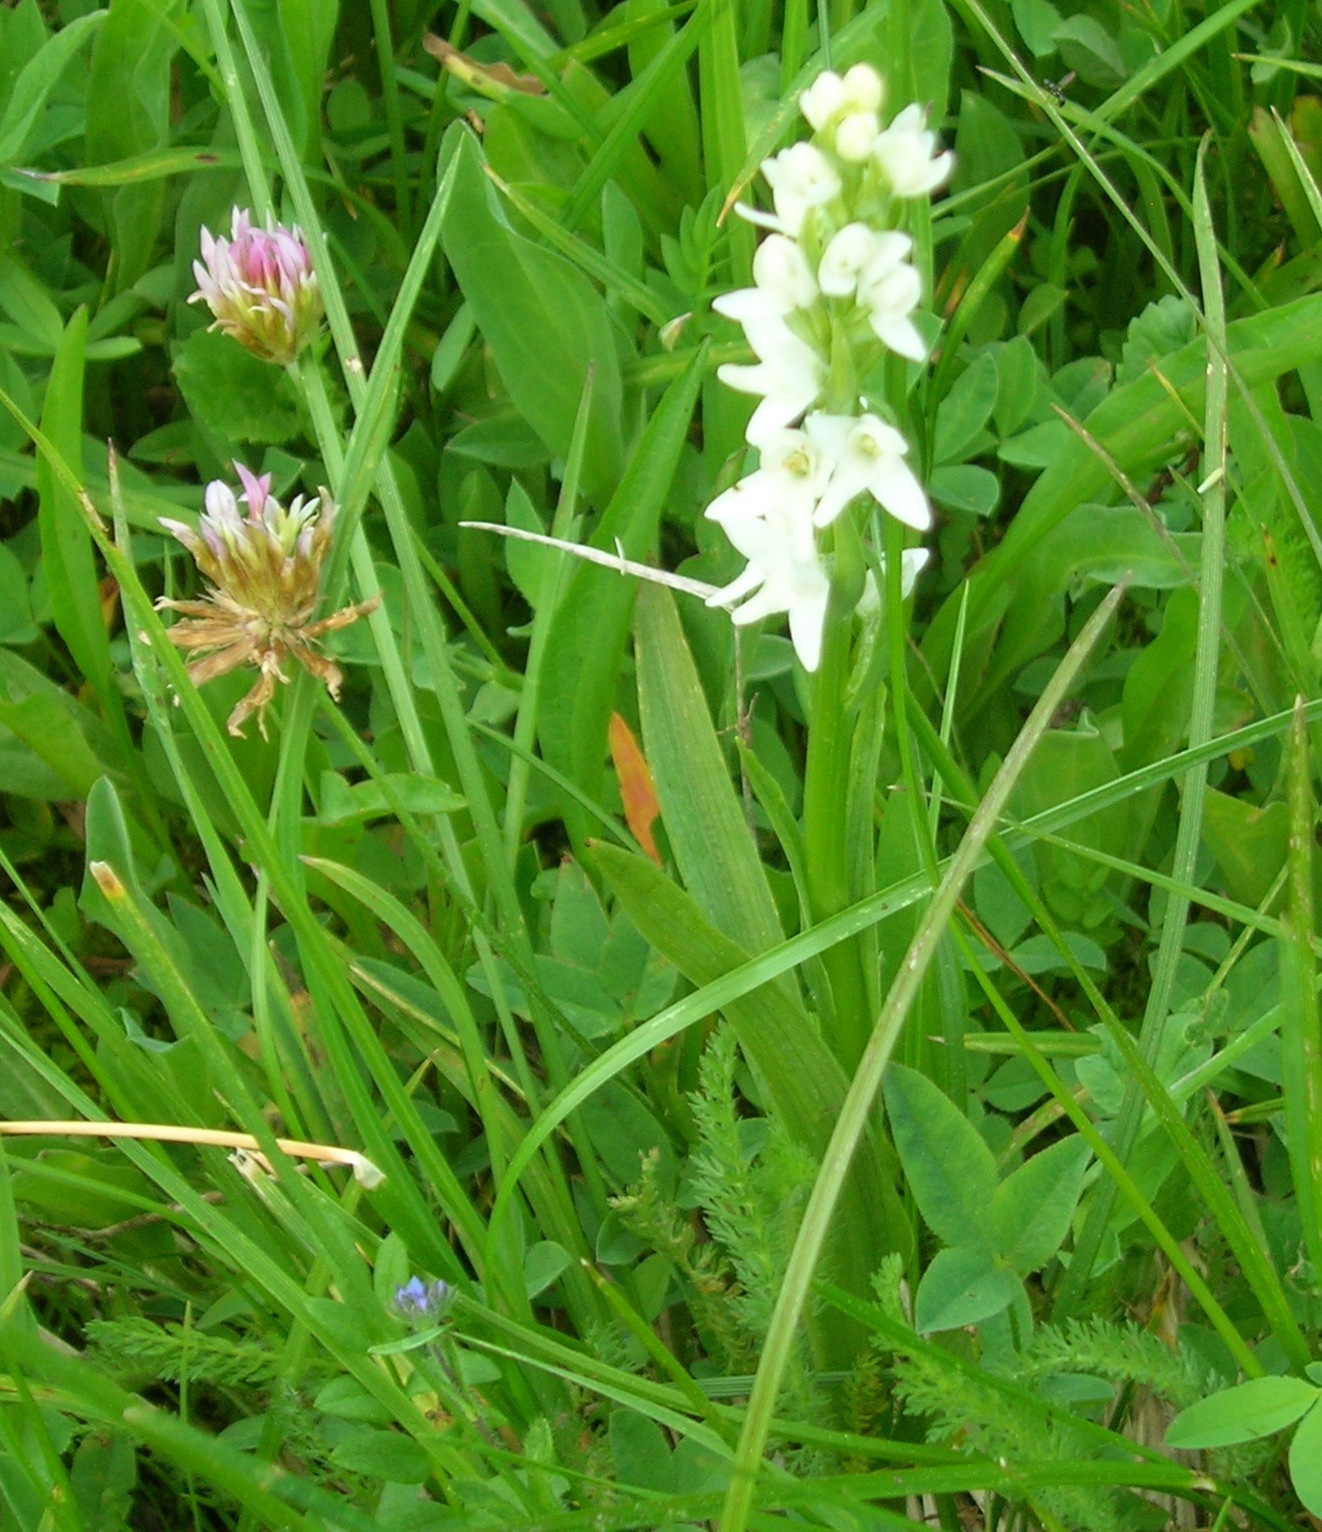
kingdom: Plantae
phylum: Tracheophyta
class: Liliopsida
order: Asparagales
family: Orchidaceae
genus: Platanthera
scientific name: Platanthera dilatata
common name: Bog candles
